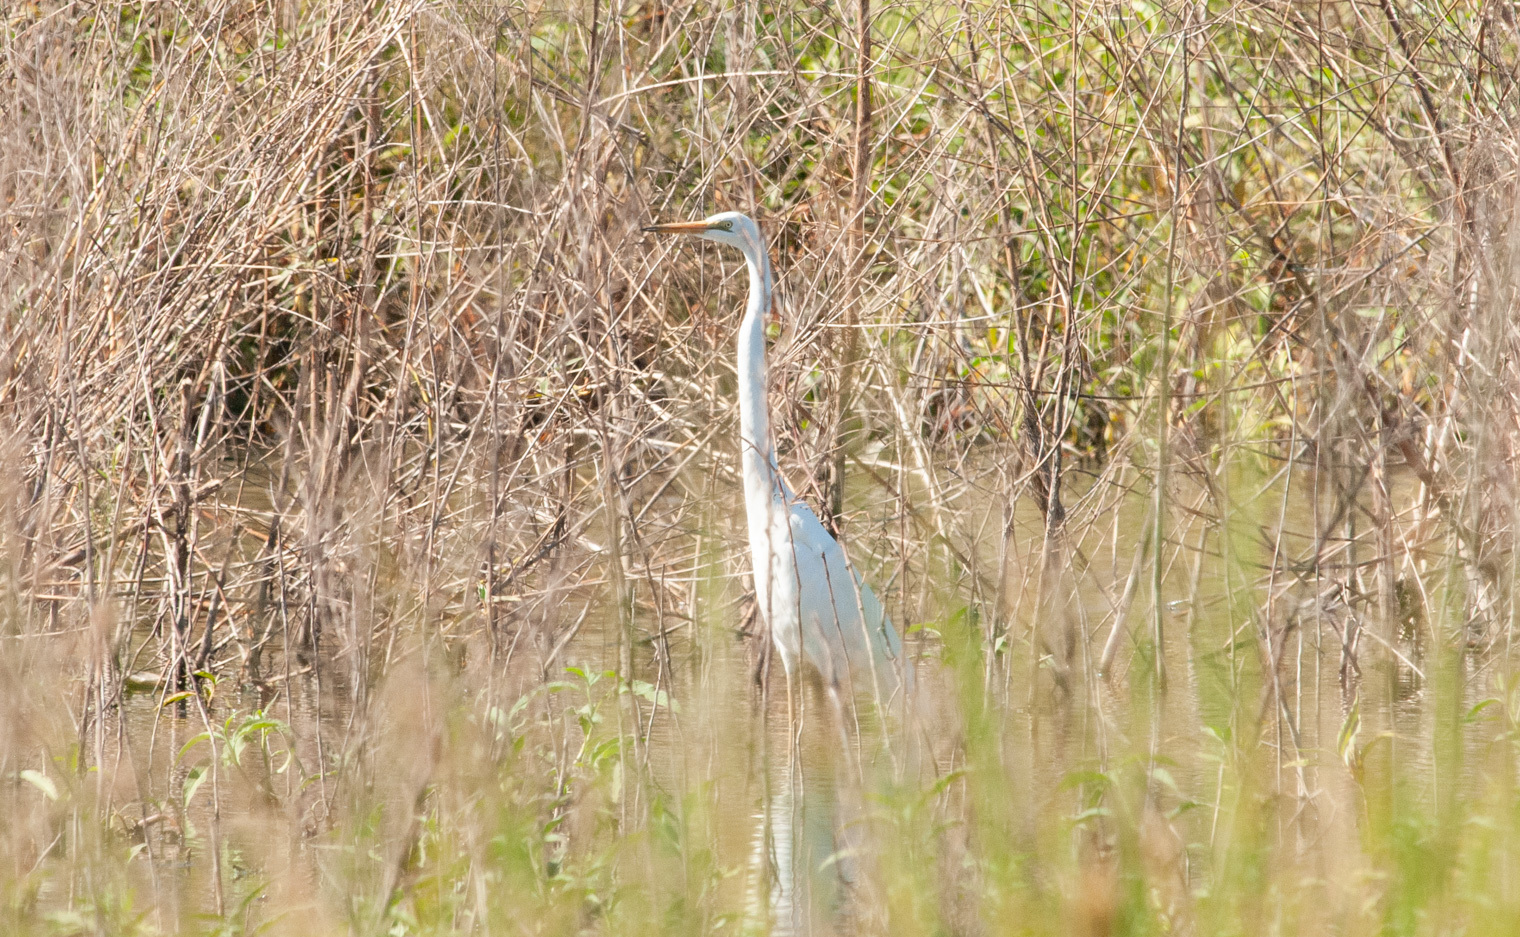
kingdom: Animalia
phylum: Chordata
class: Aves
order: Pelecaniformes
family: Ardeidae
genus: Ardea
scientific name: Ardea alba
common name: Great egret
